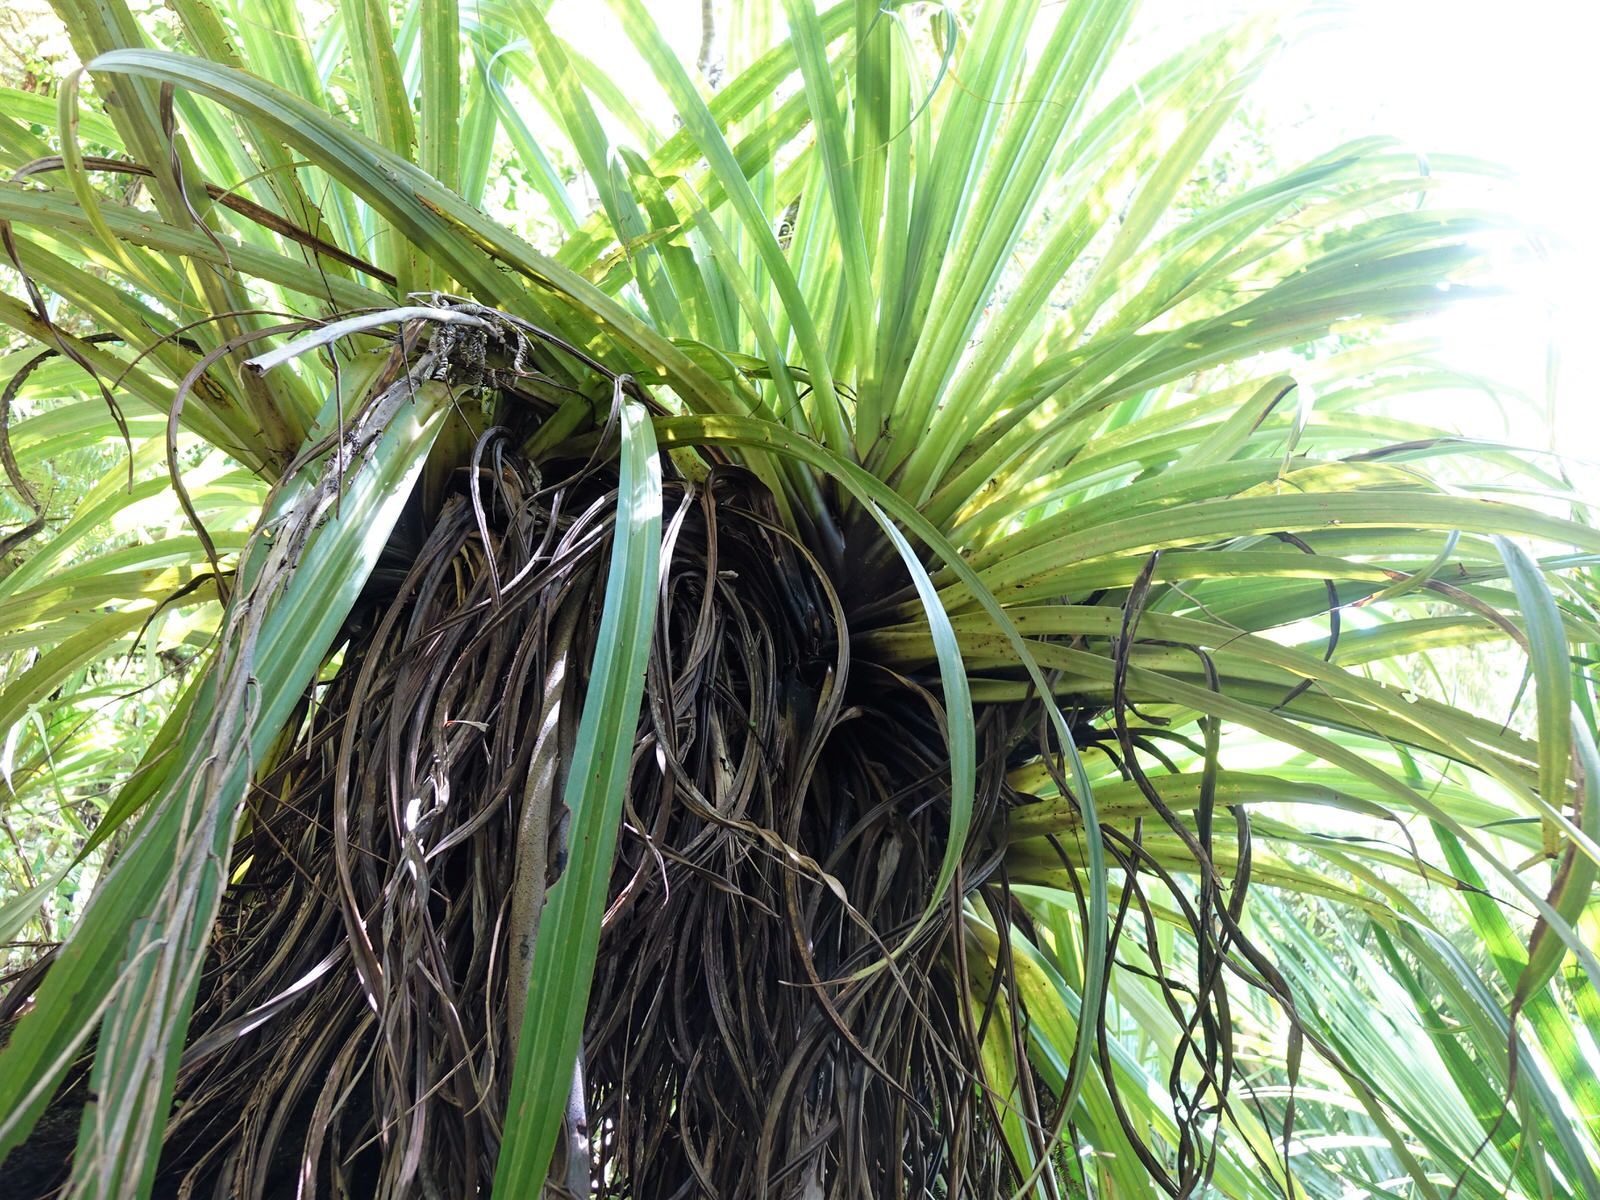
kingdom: Plantae
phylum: Tracheophyta
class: Liliopsida
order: Asparagales
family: Asteliaceae
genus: Astelia
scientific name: Astelia hastata
